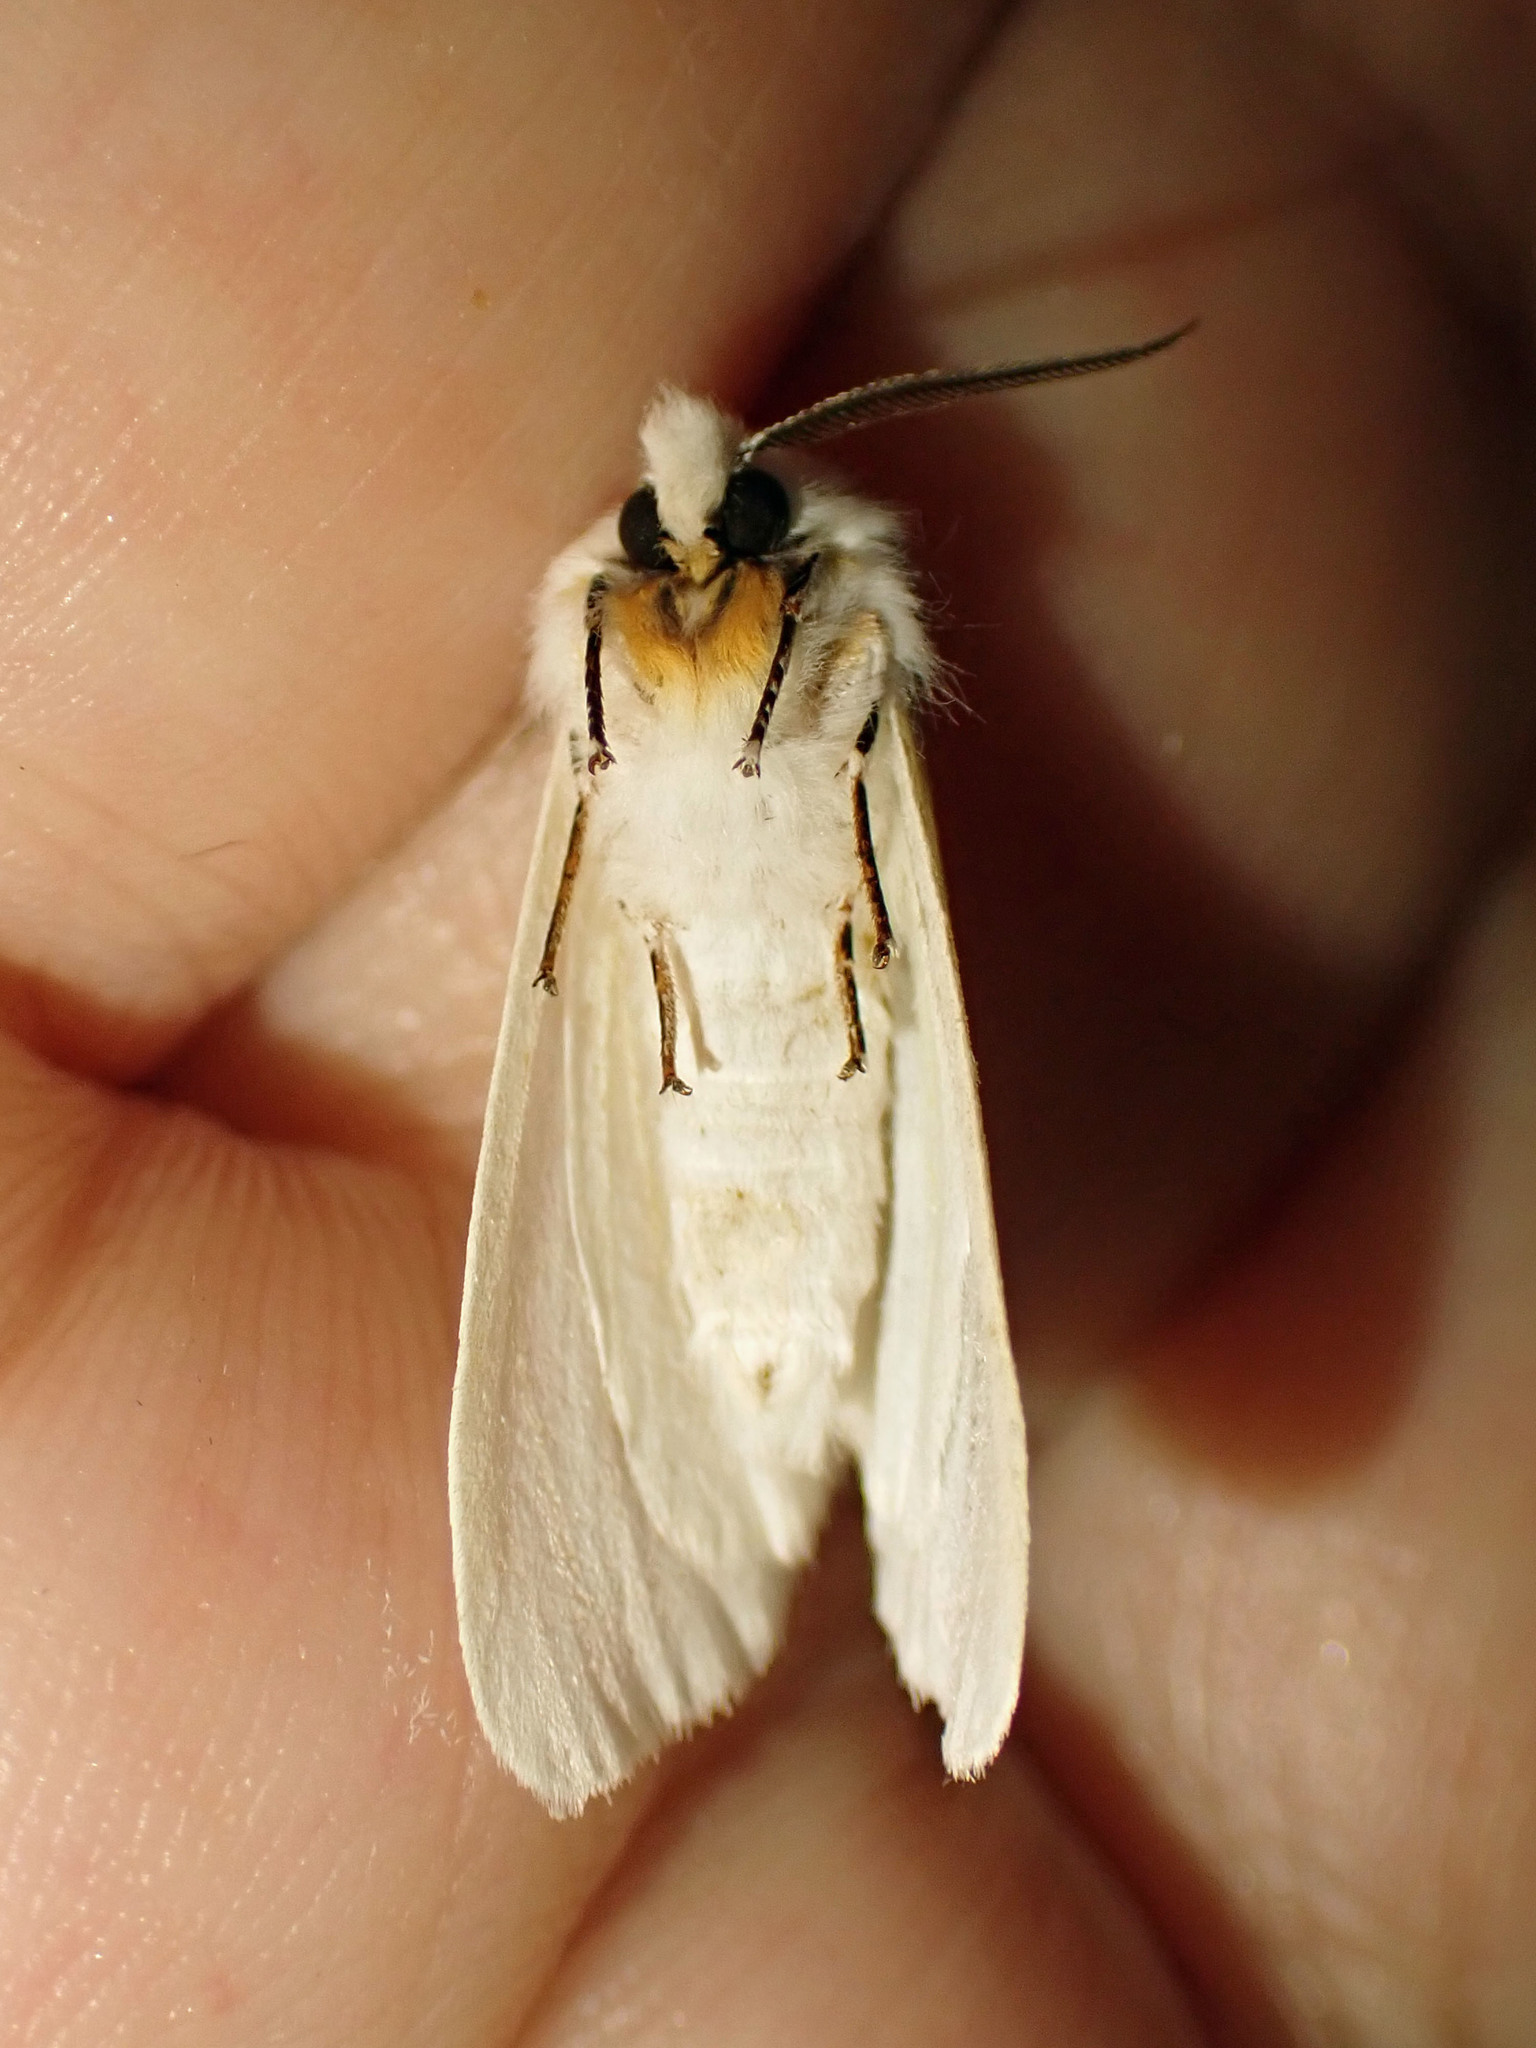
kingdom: Animalia
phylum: Arthropoda
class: Insecta
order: Lepidoptera
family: Erebidae
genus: Hyphantria
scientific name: Hyphantria cunea
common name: American white moth
